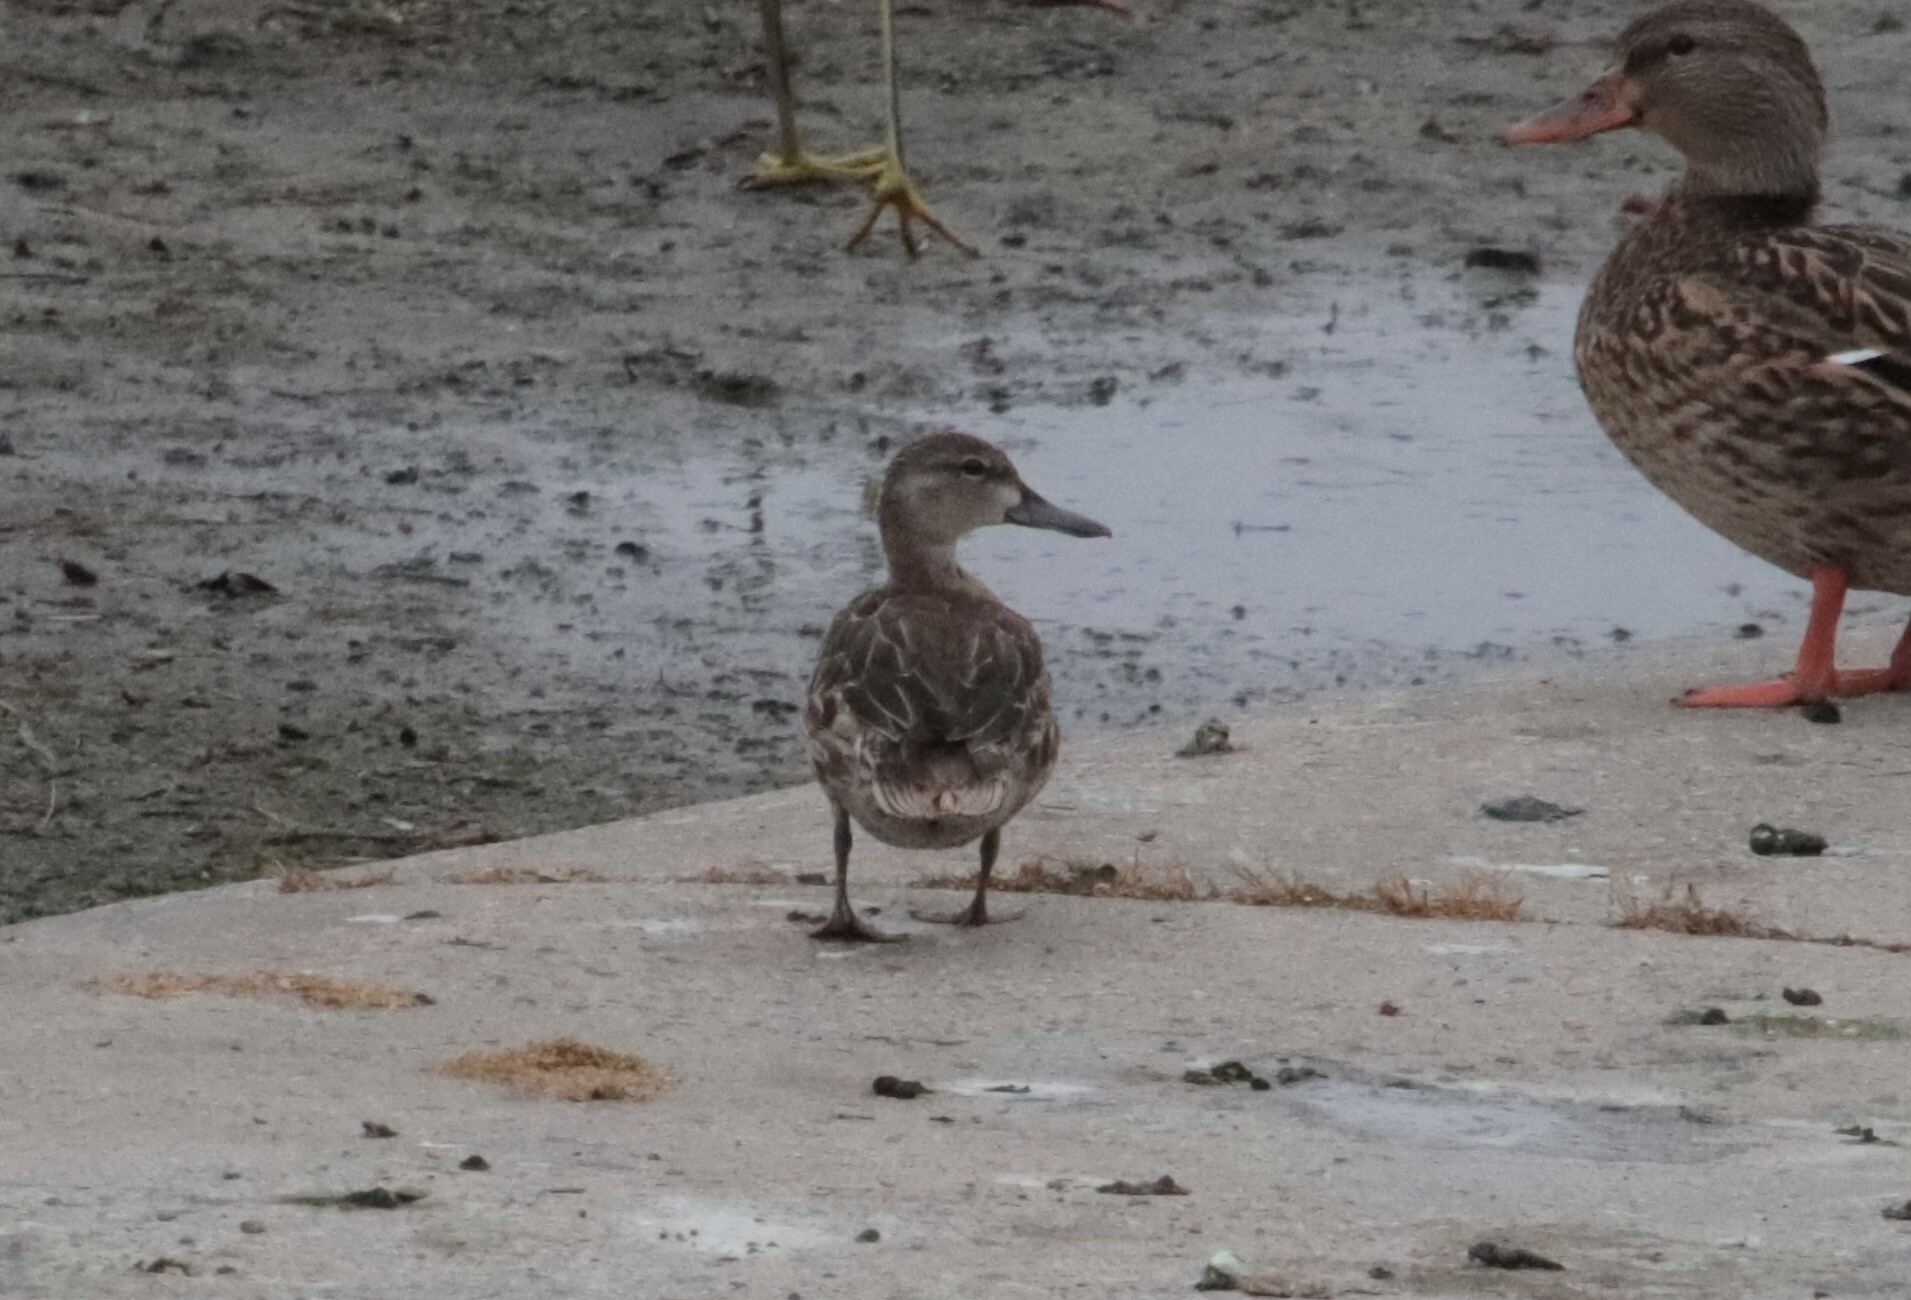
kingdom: Animalia
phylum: Chordata
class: Aves
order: Anseriformes
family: Anatidae
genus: Spatula
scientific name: Spatula discors
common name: Blue-winged teal
